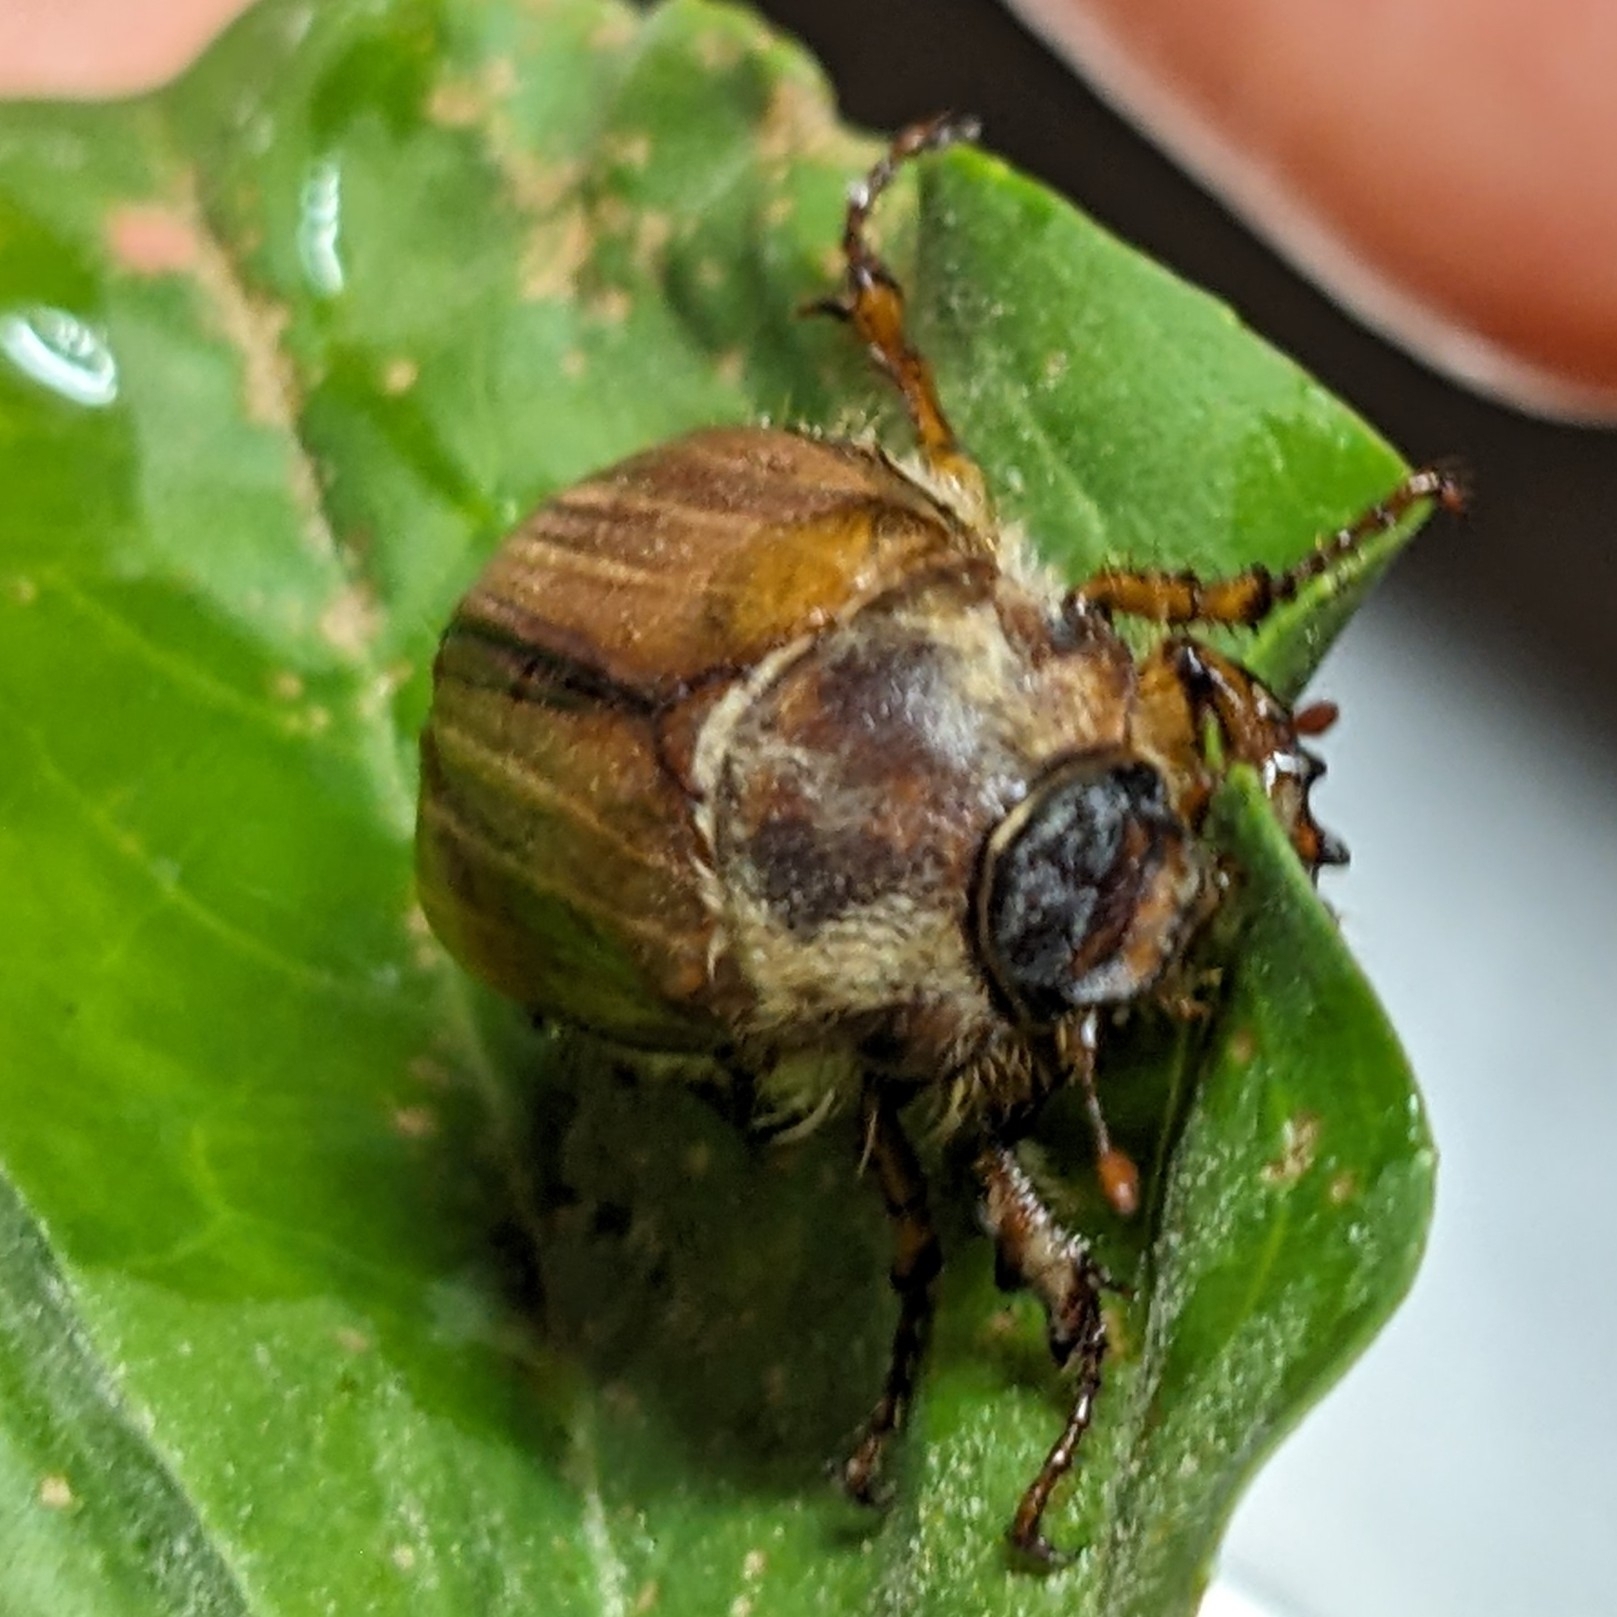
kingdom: Animalia
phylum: Arthropoda
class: Insecta
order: Coleoptera
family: Scarabaeidae
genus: Amphimallon
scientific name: Amphimallon solstitiale
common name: Summer chafer
